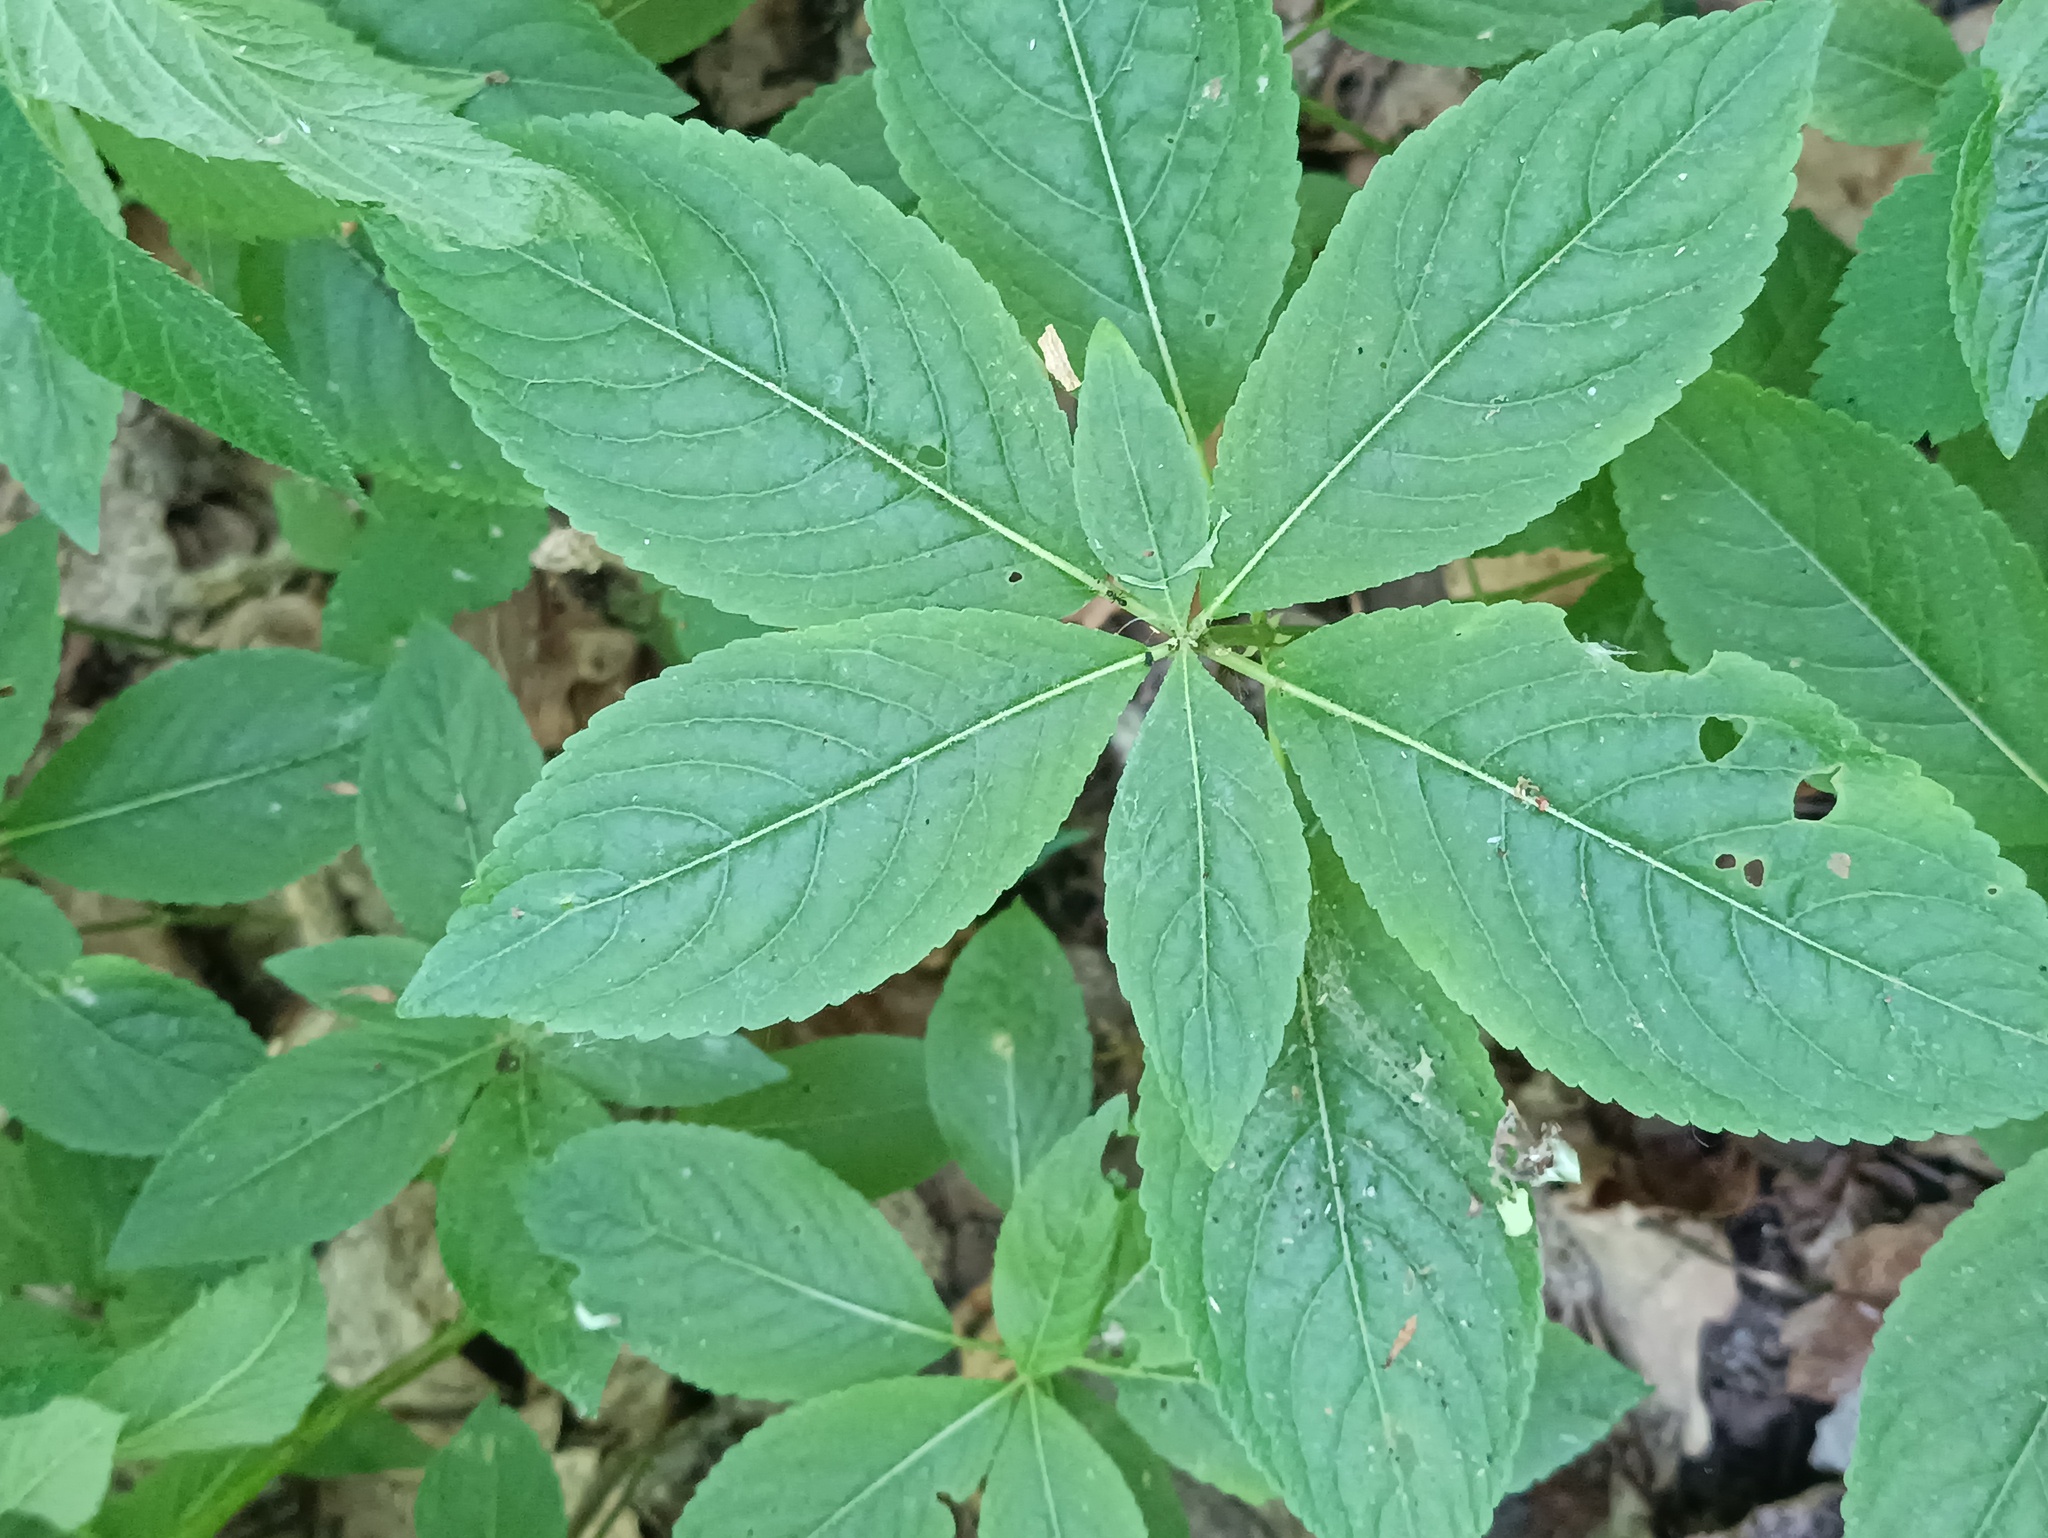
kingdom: Plantae
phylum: Tracheophyta
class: Magnoliopsida
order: Malpighiales
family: Euphorbiaceae
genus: Mercurialis
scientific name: Mercurialis perennis
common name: Dog mercury
